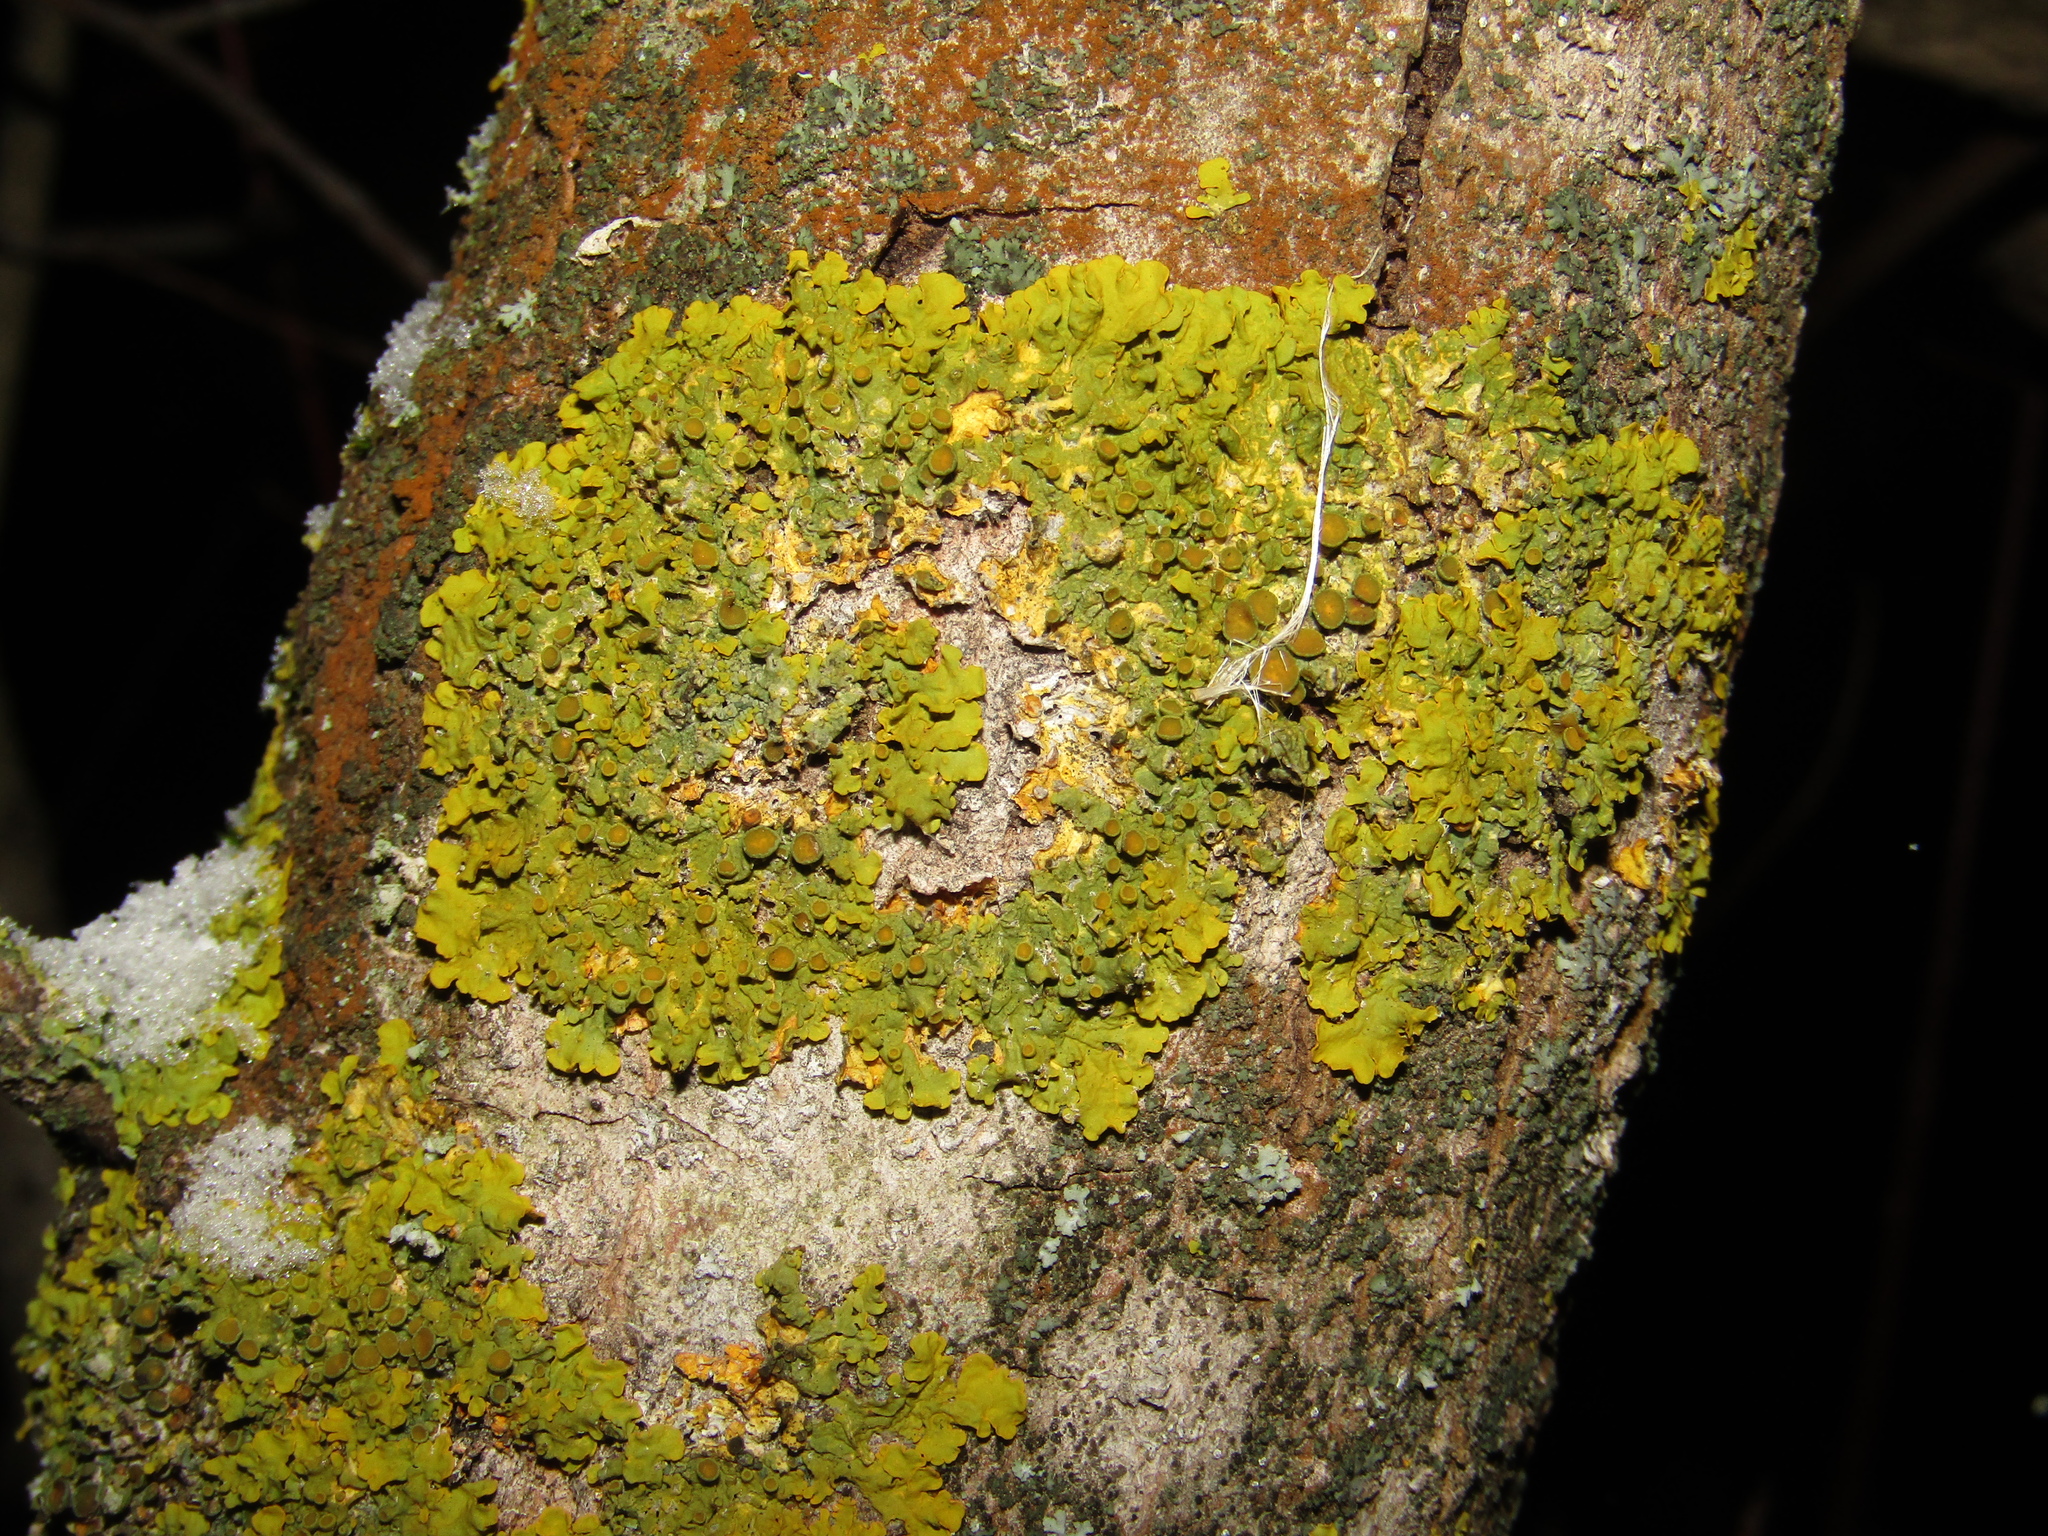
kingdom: Fungi
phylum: Ascomycota
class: Lecanoromycetes
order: Teloschistales
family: Teloschistaceae
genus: Xanthoria
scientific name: Xanthoria parietina
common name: Common orange lichen
